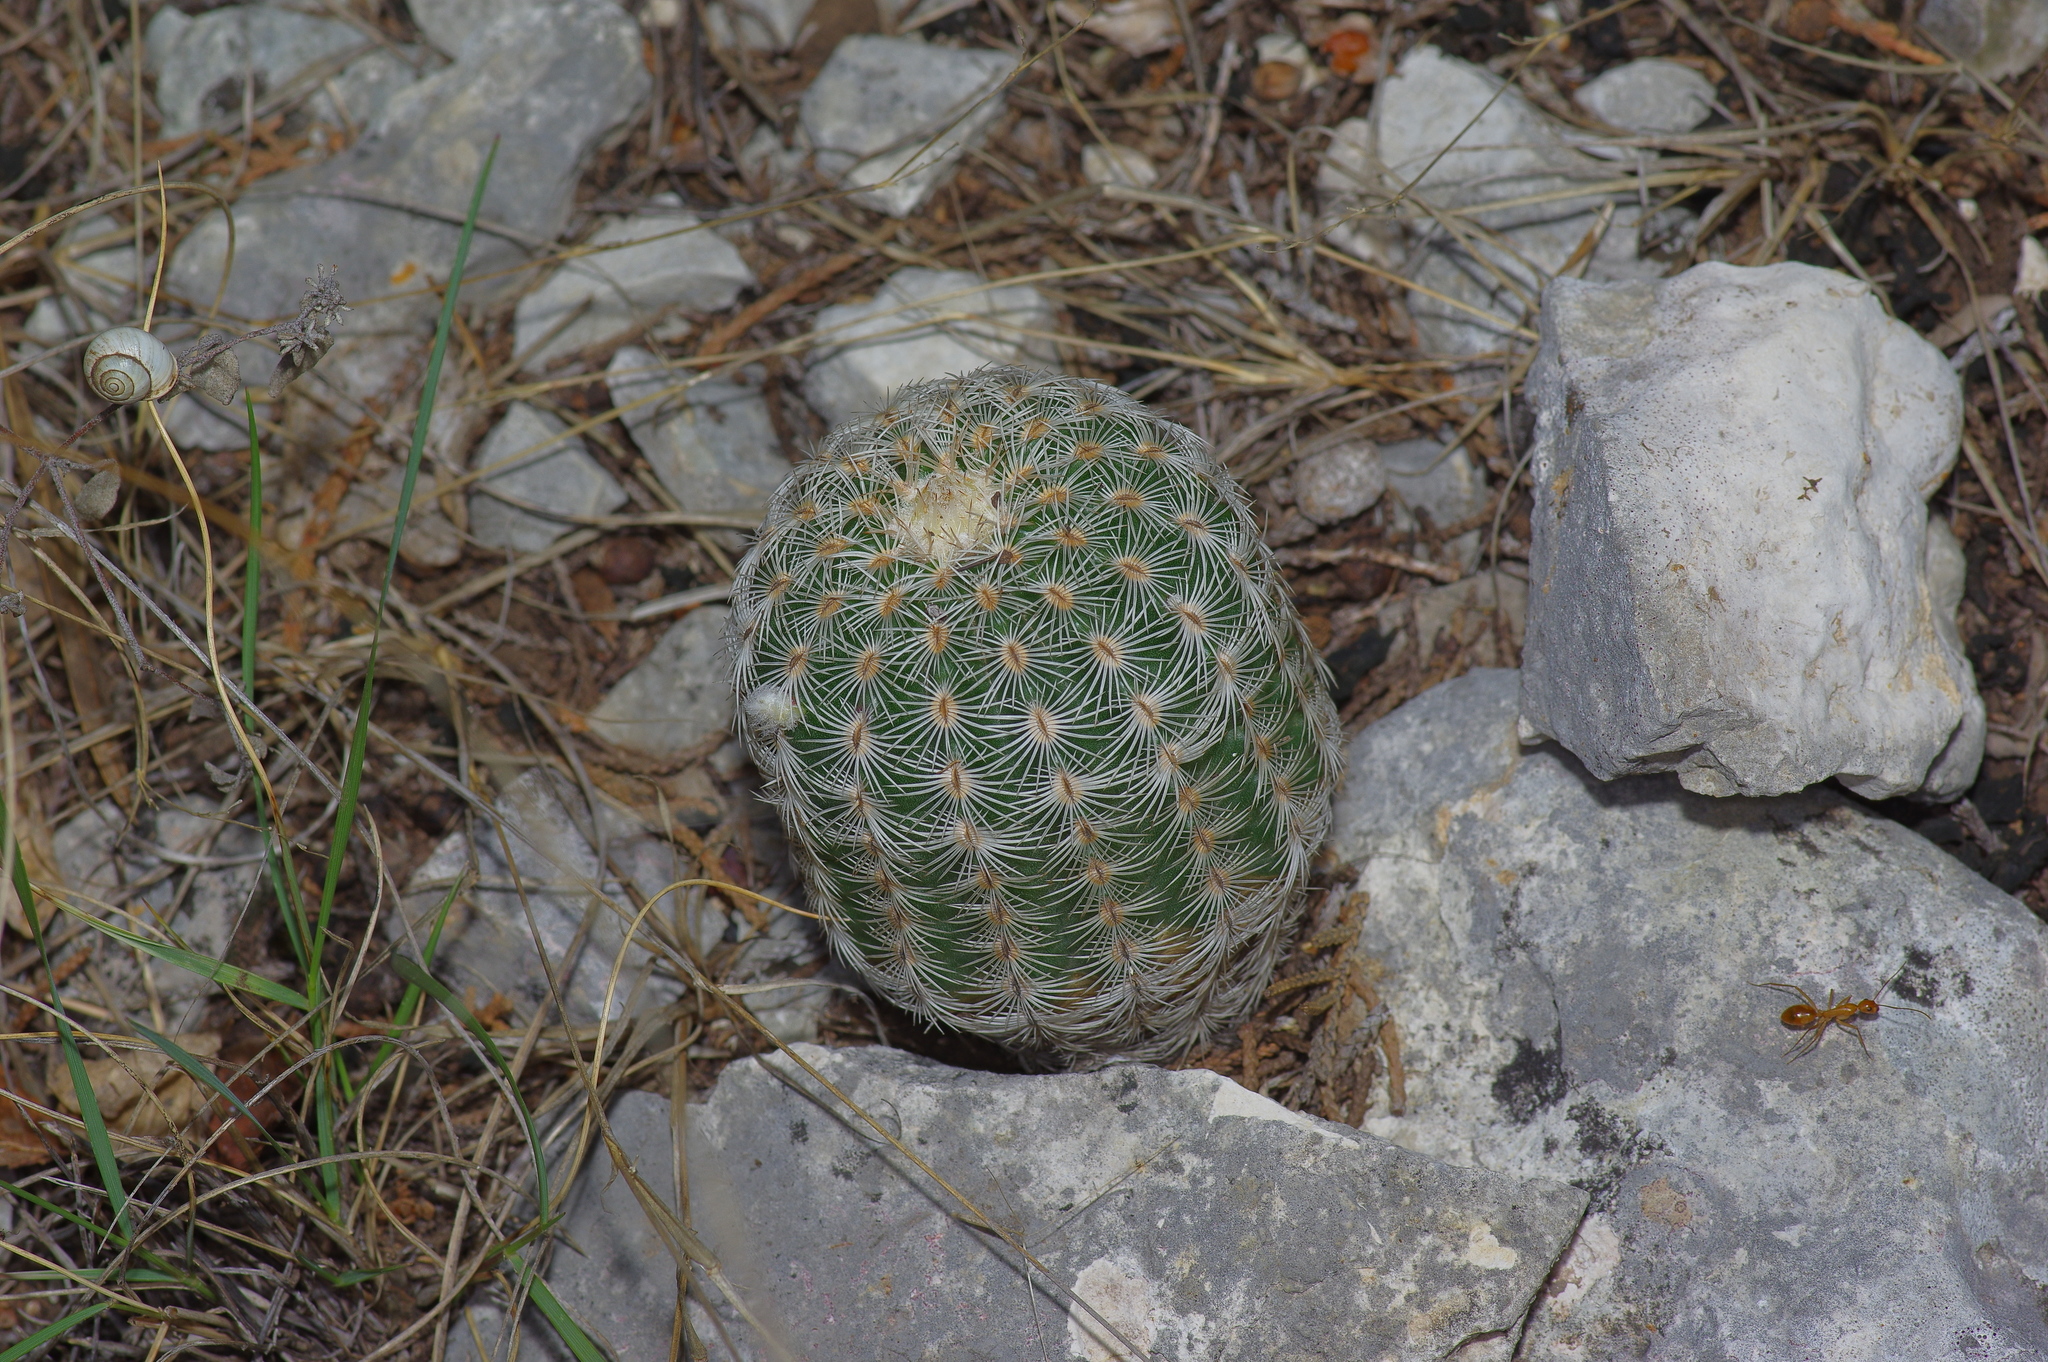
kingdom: Plantae
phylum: Tracheophyta
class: Magnoliopsida
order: Caryophyllales
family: Cactaceae
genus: Echinocereus
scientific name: Echinocereus reichenbachii
